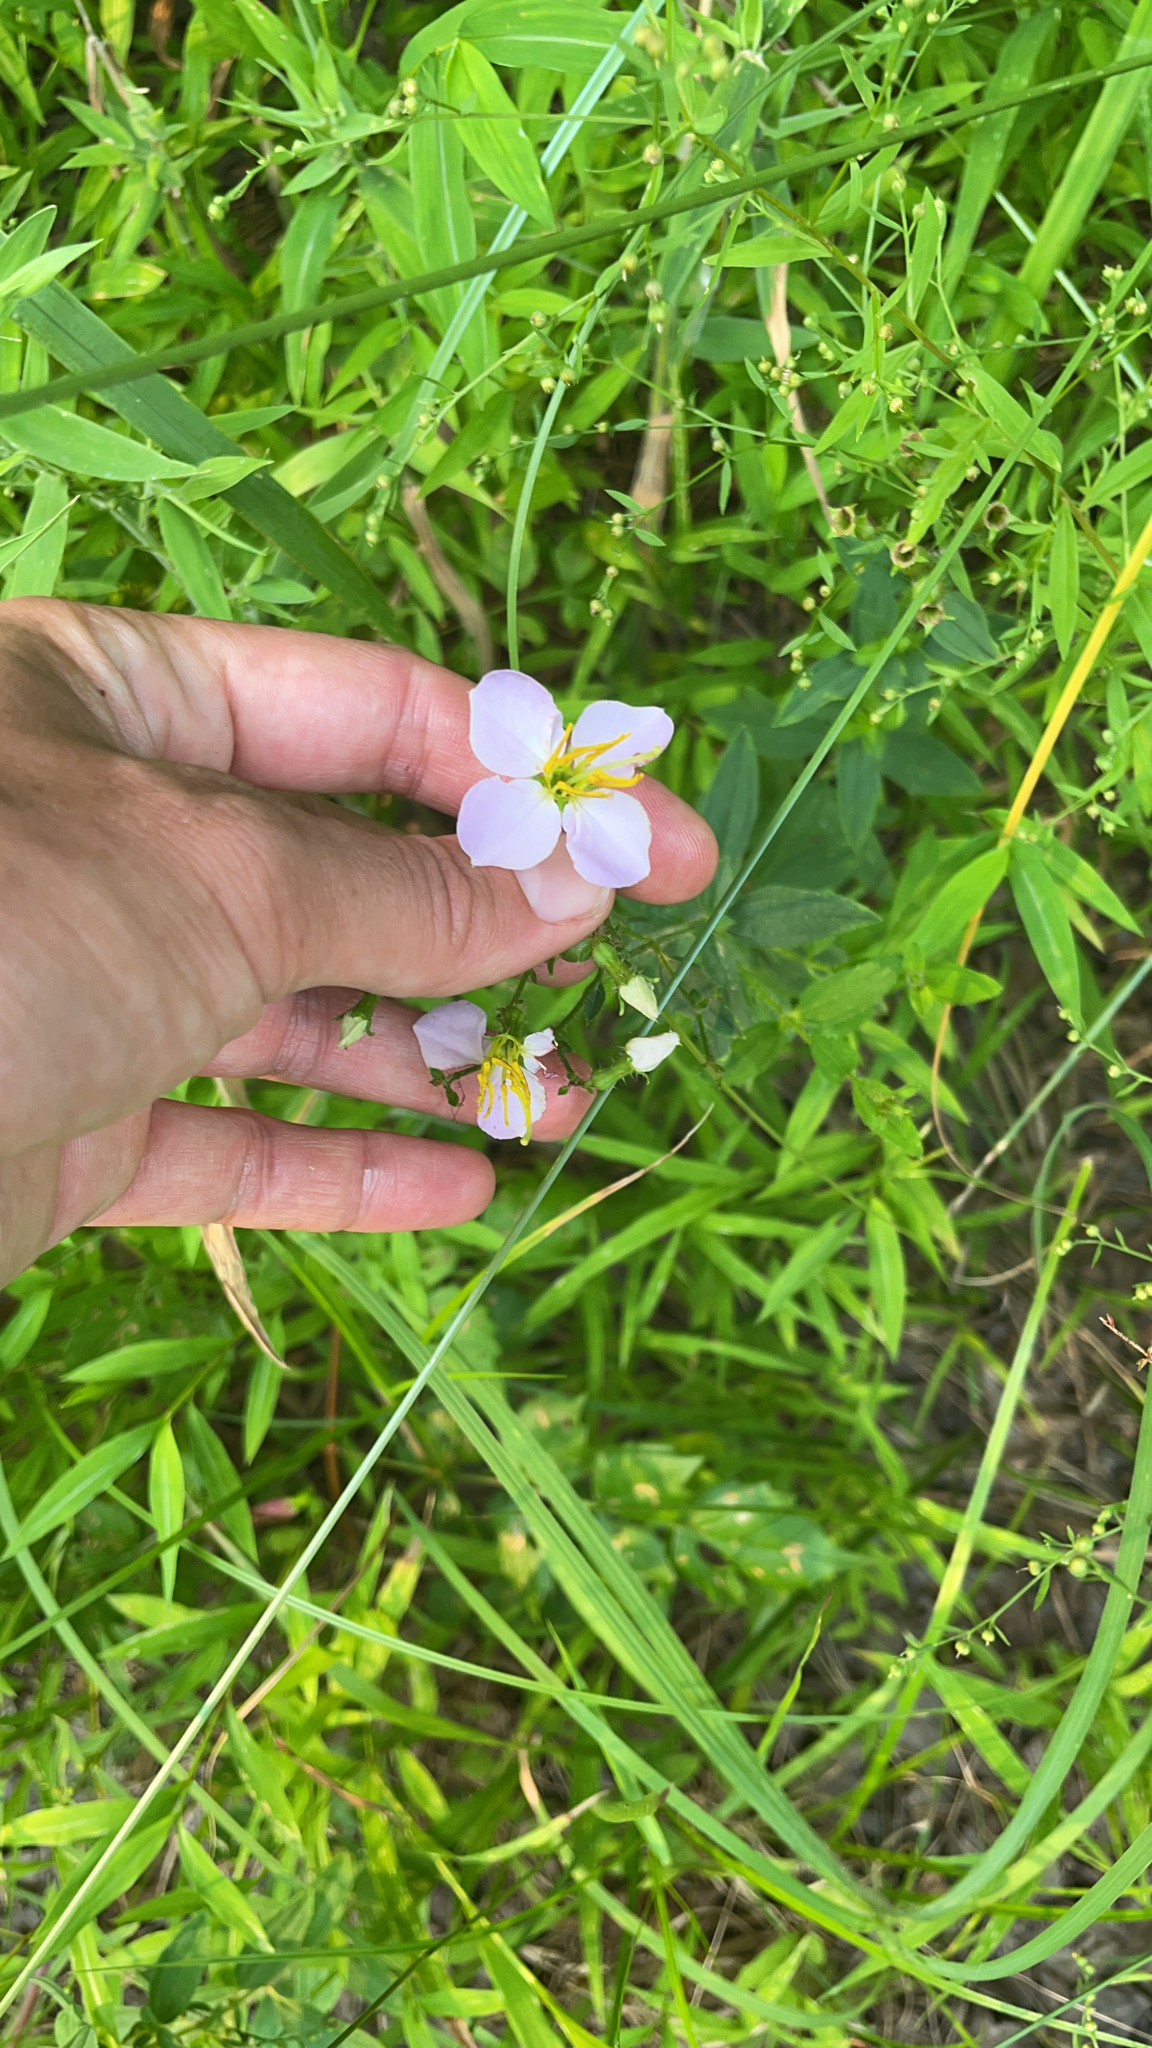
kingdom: Plantae
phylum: Tracheophyta
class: Magnoliopsida
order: Myrtales
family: Melastomataceae
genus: Rhexia
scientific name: Rhexia mariana
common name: Dull meadow-pitcher
